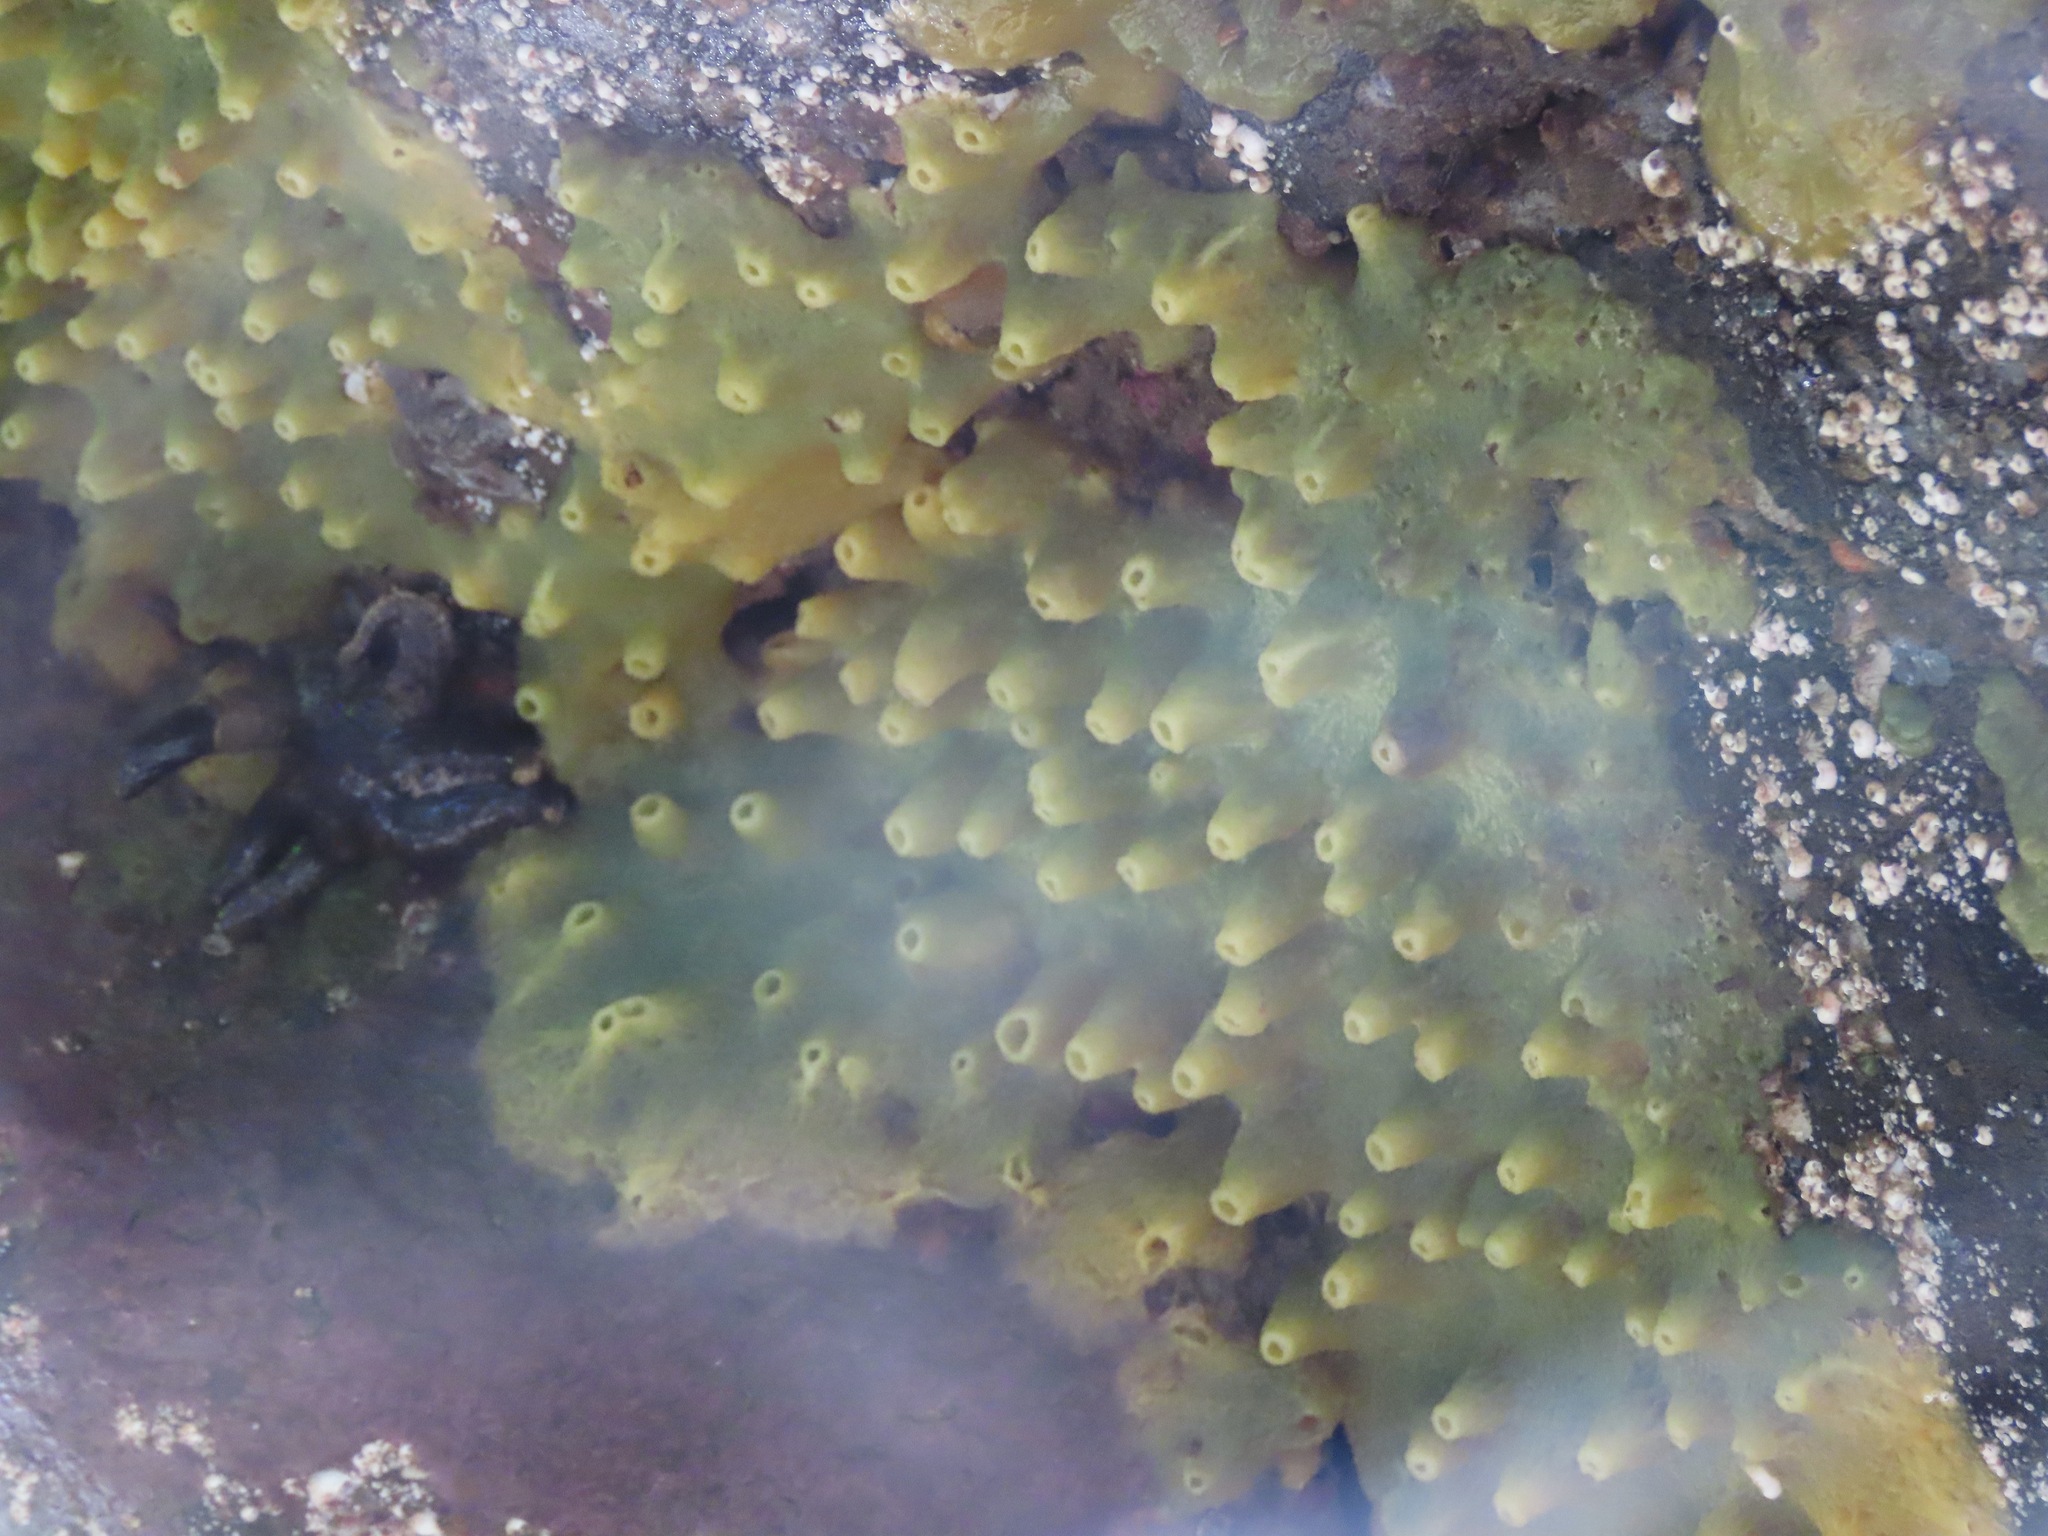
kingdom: Animalia
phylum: Porifera
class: Demospongiae
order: Suberitida
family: Halichondriidae
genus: Halichondria
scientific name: Halichondria panicea
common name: Breadcrumb sponge
